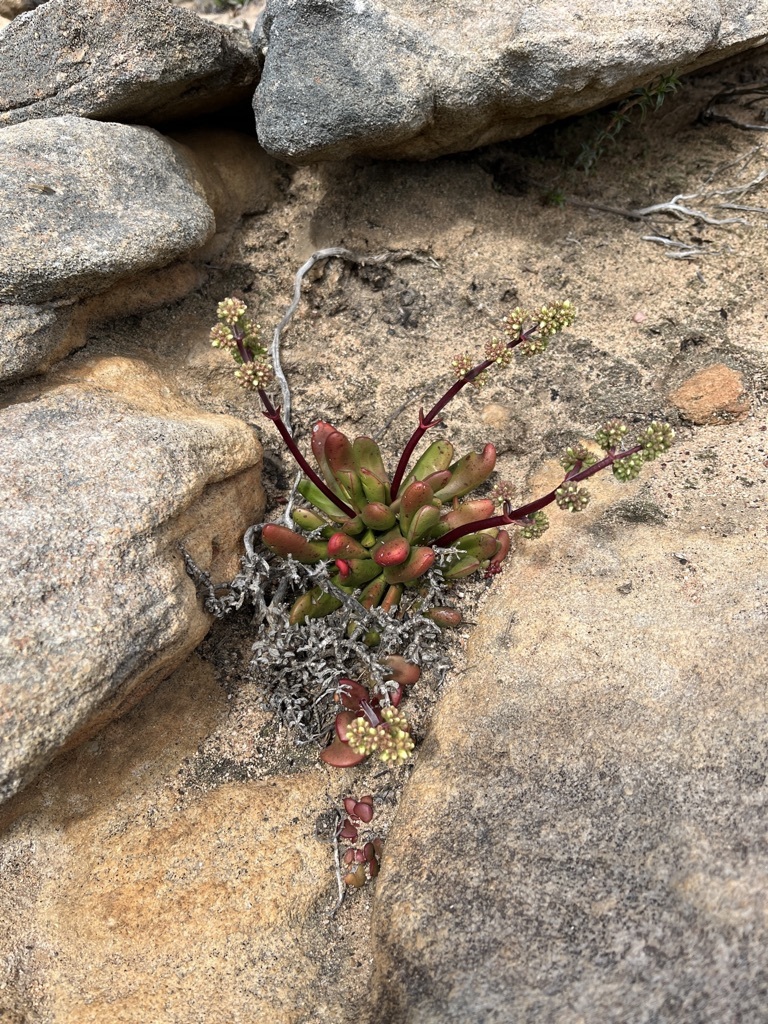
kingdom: Plantae
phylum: Tracheophyta
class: Magnoliopsida
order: Saxifragales
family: Crassulaceae
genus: Crassula
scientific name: Crassula clavata
